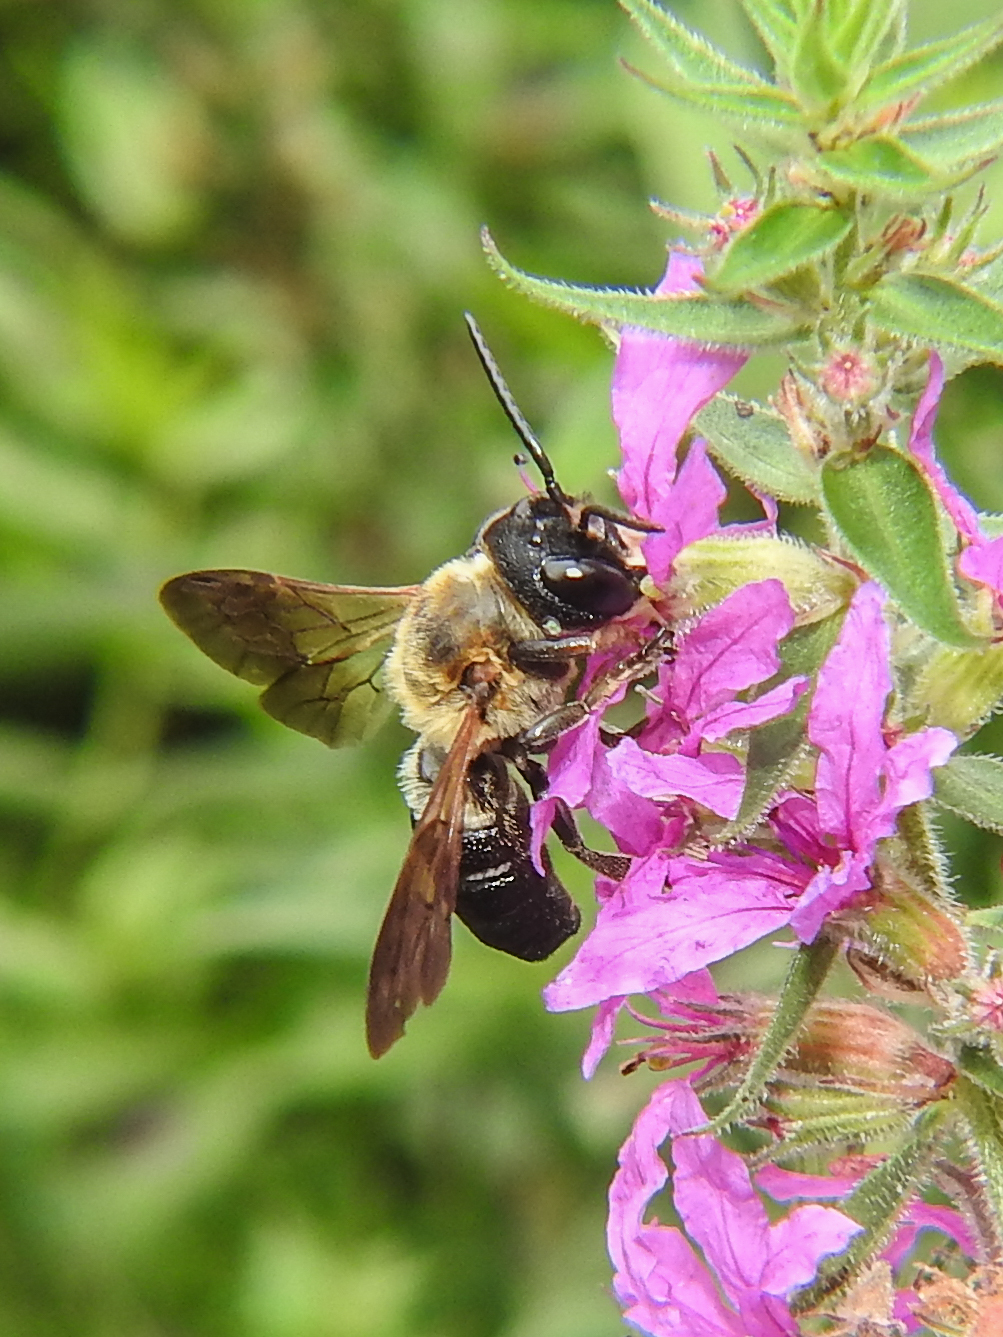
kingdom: Animalia
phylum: Arthropoda
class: Insecta
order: Hymenoptera
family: Megachilidae
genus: Megachile
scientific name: Megachile sculpturalis
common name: Sculptured resin bee
